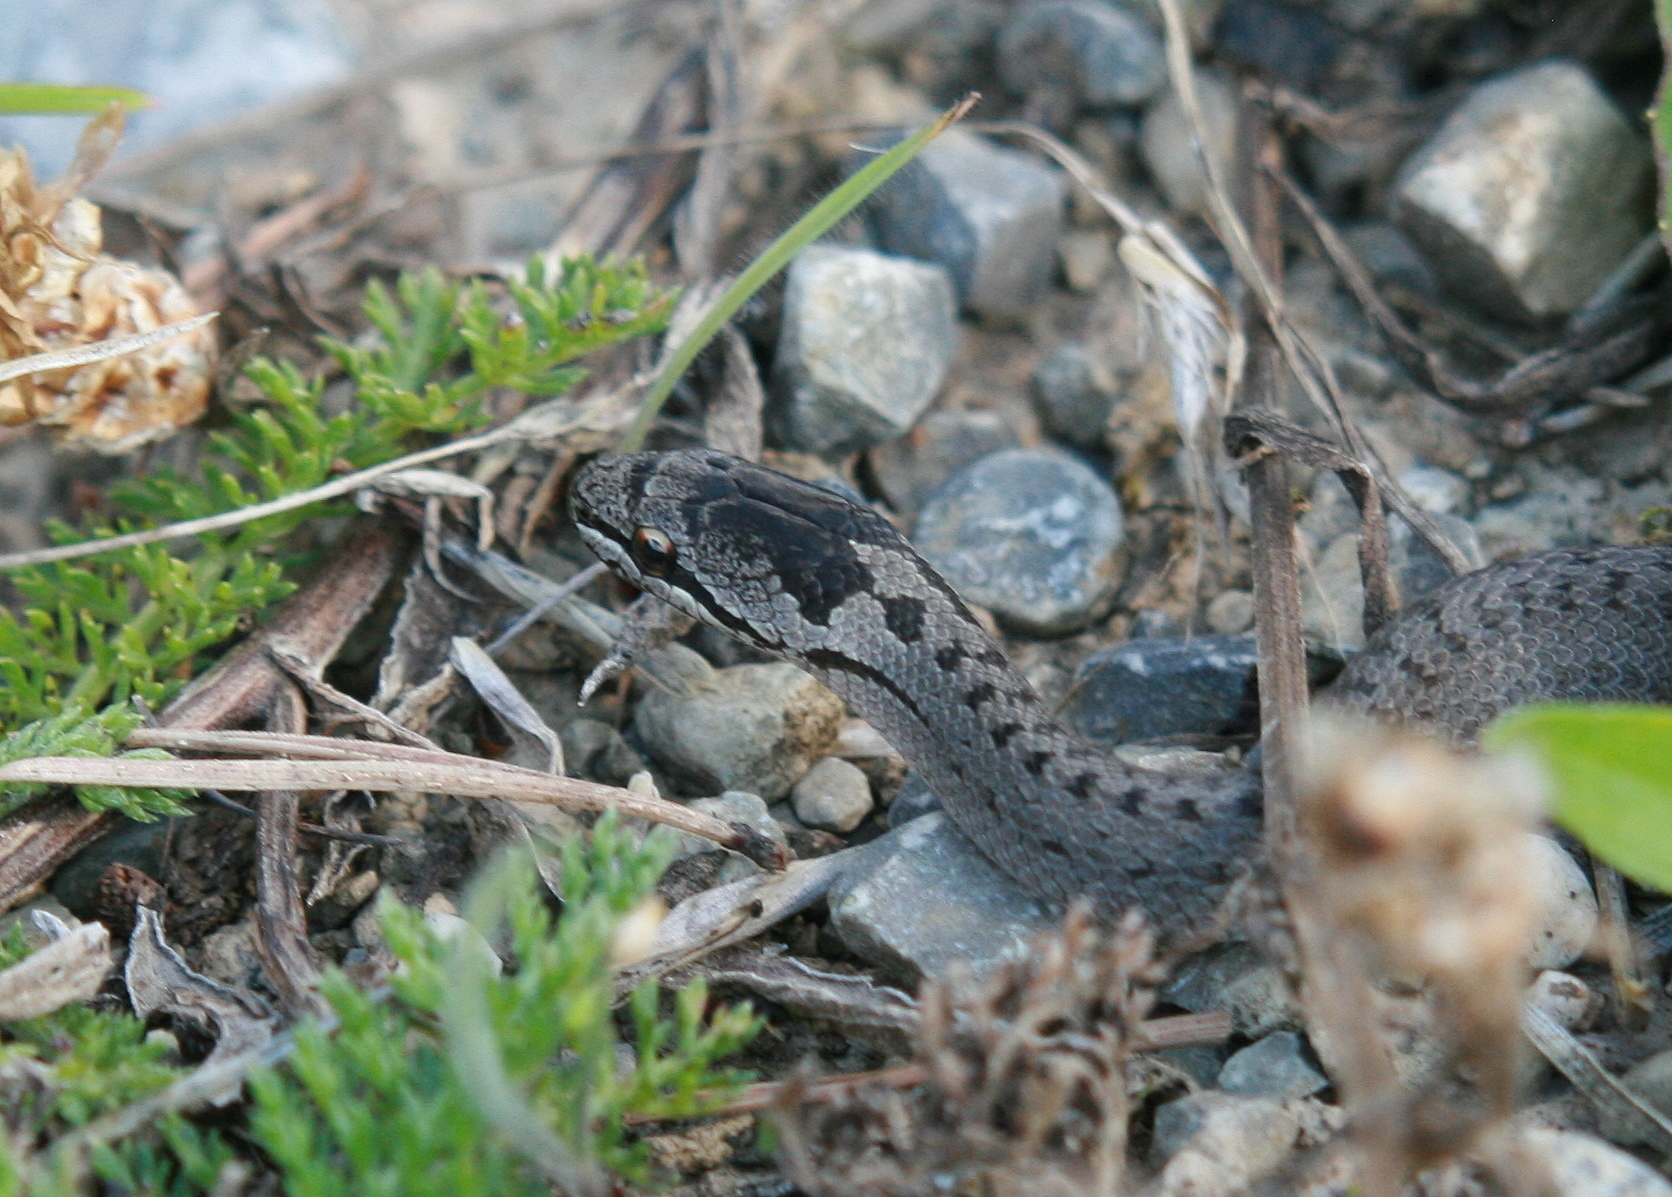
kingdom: Animalia
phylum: Chordata
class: Squamata
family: Colubridae
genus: Coronella
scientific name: Coronella austriaca
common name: Smooth snake
